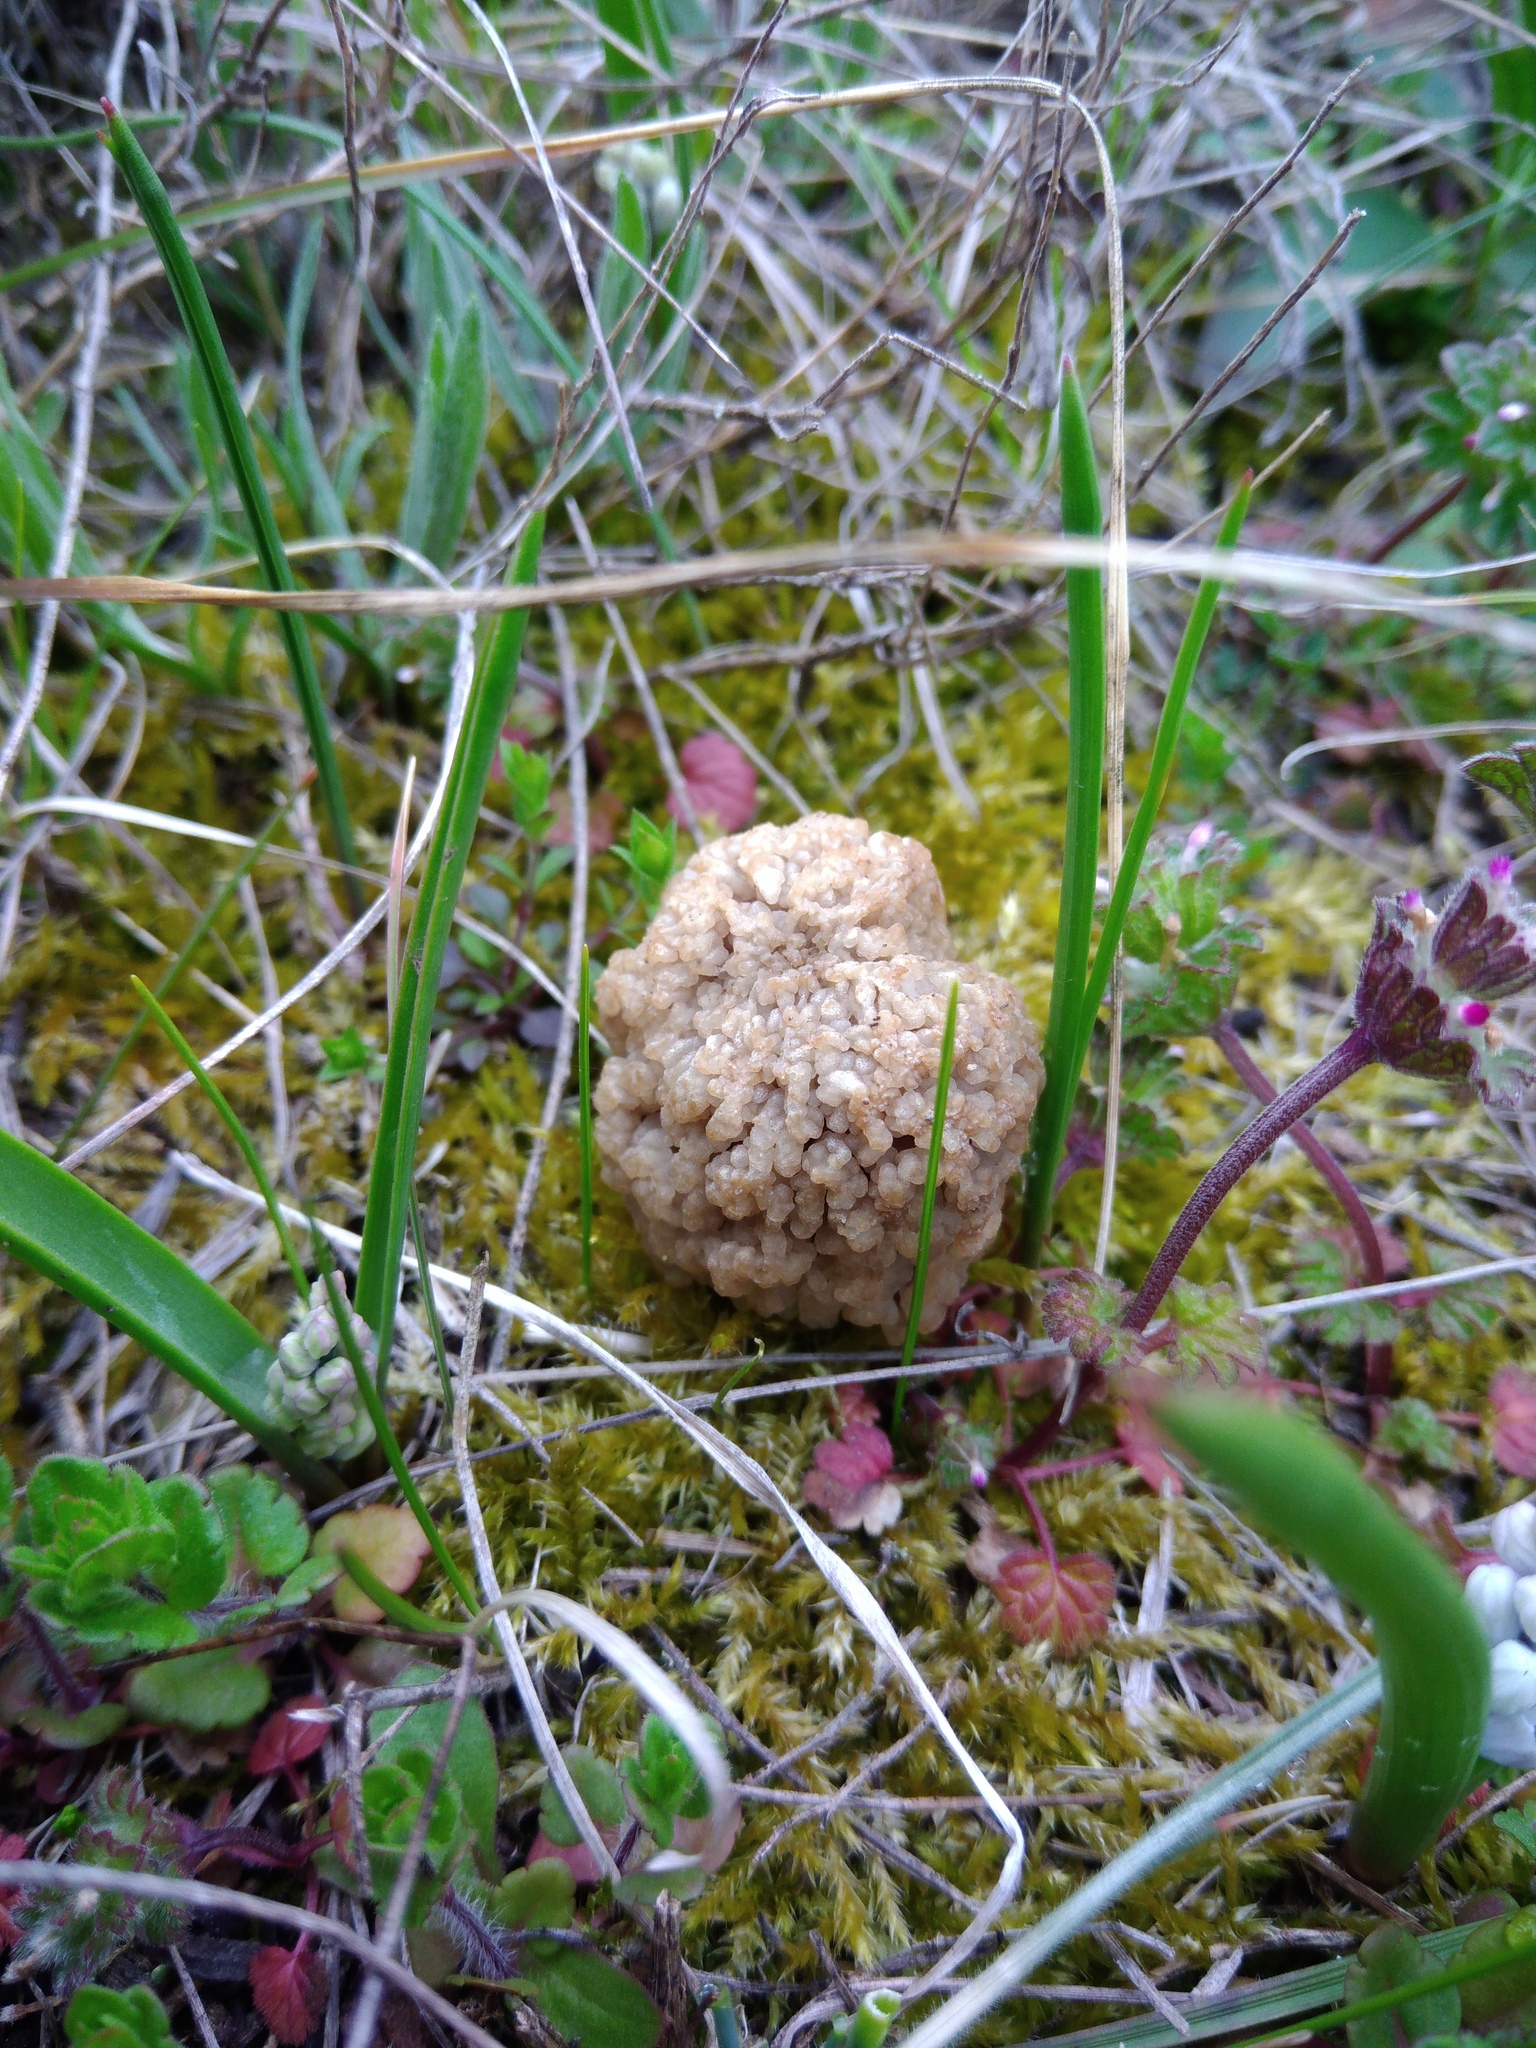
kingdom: Fungi
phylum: Ascomycota
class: Pezizomycetes
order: Pezizales
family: Morchellaceae
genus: Morchella
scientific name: Morchella steppicola
